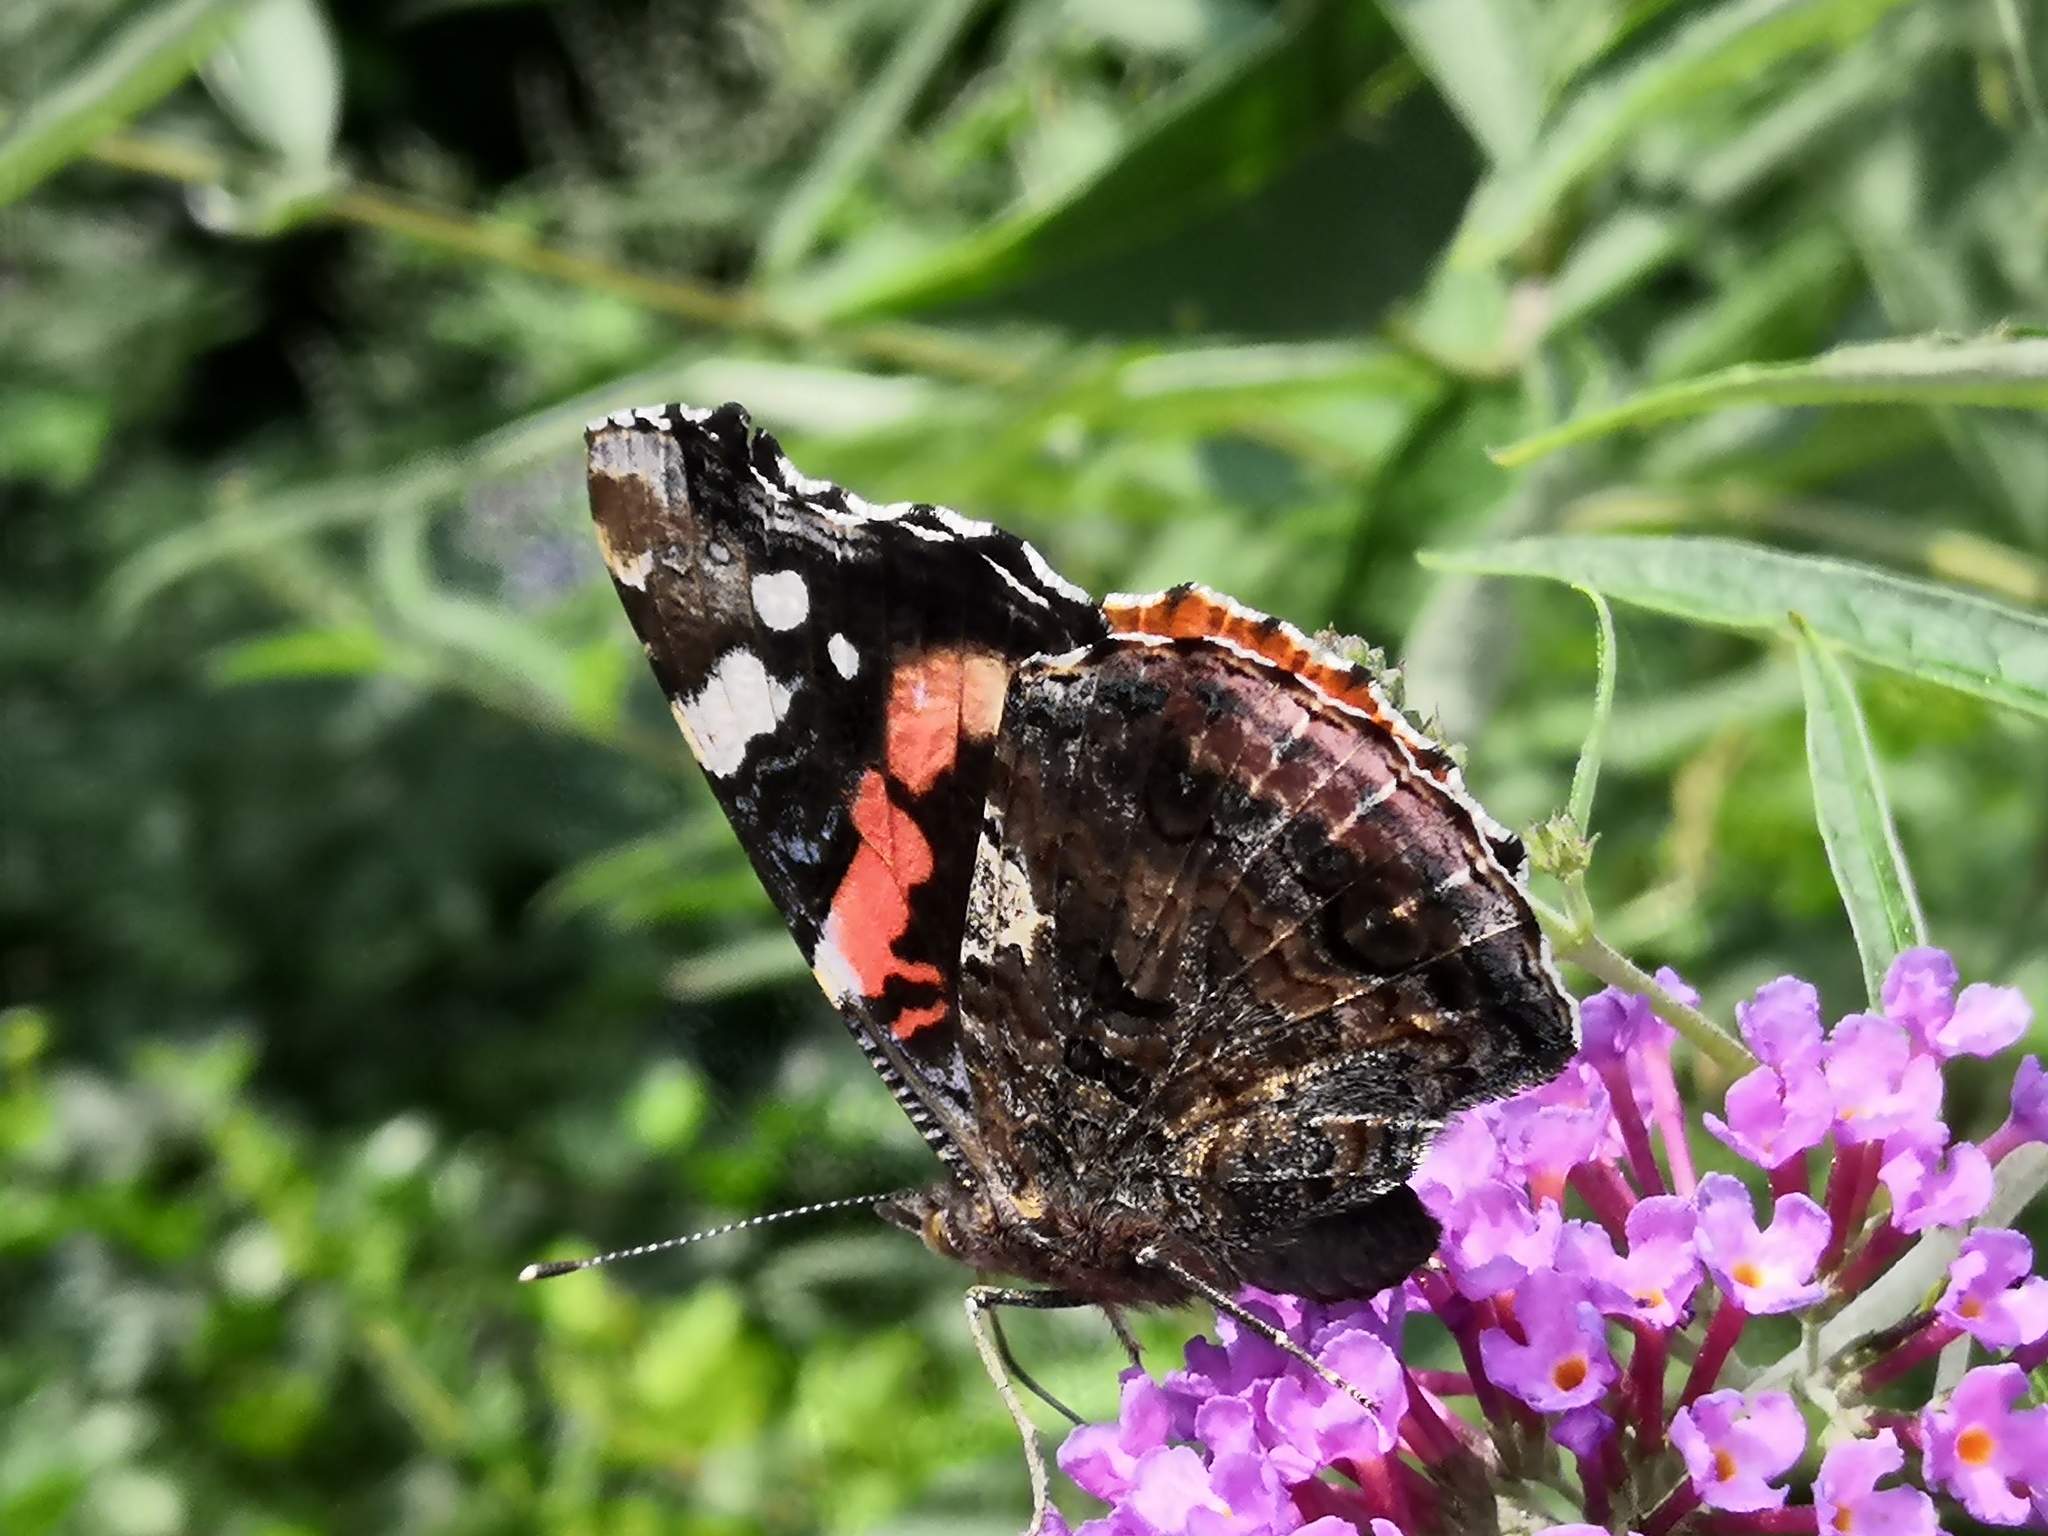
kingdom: Animalia
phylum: Arthropoda
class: Insecta
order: Lepidoptera
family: Nymphalidae
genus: Vanessa
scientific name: Vanessa atalanta
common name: Red admiral
